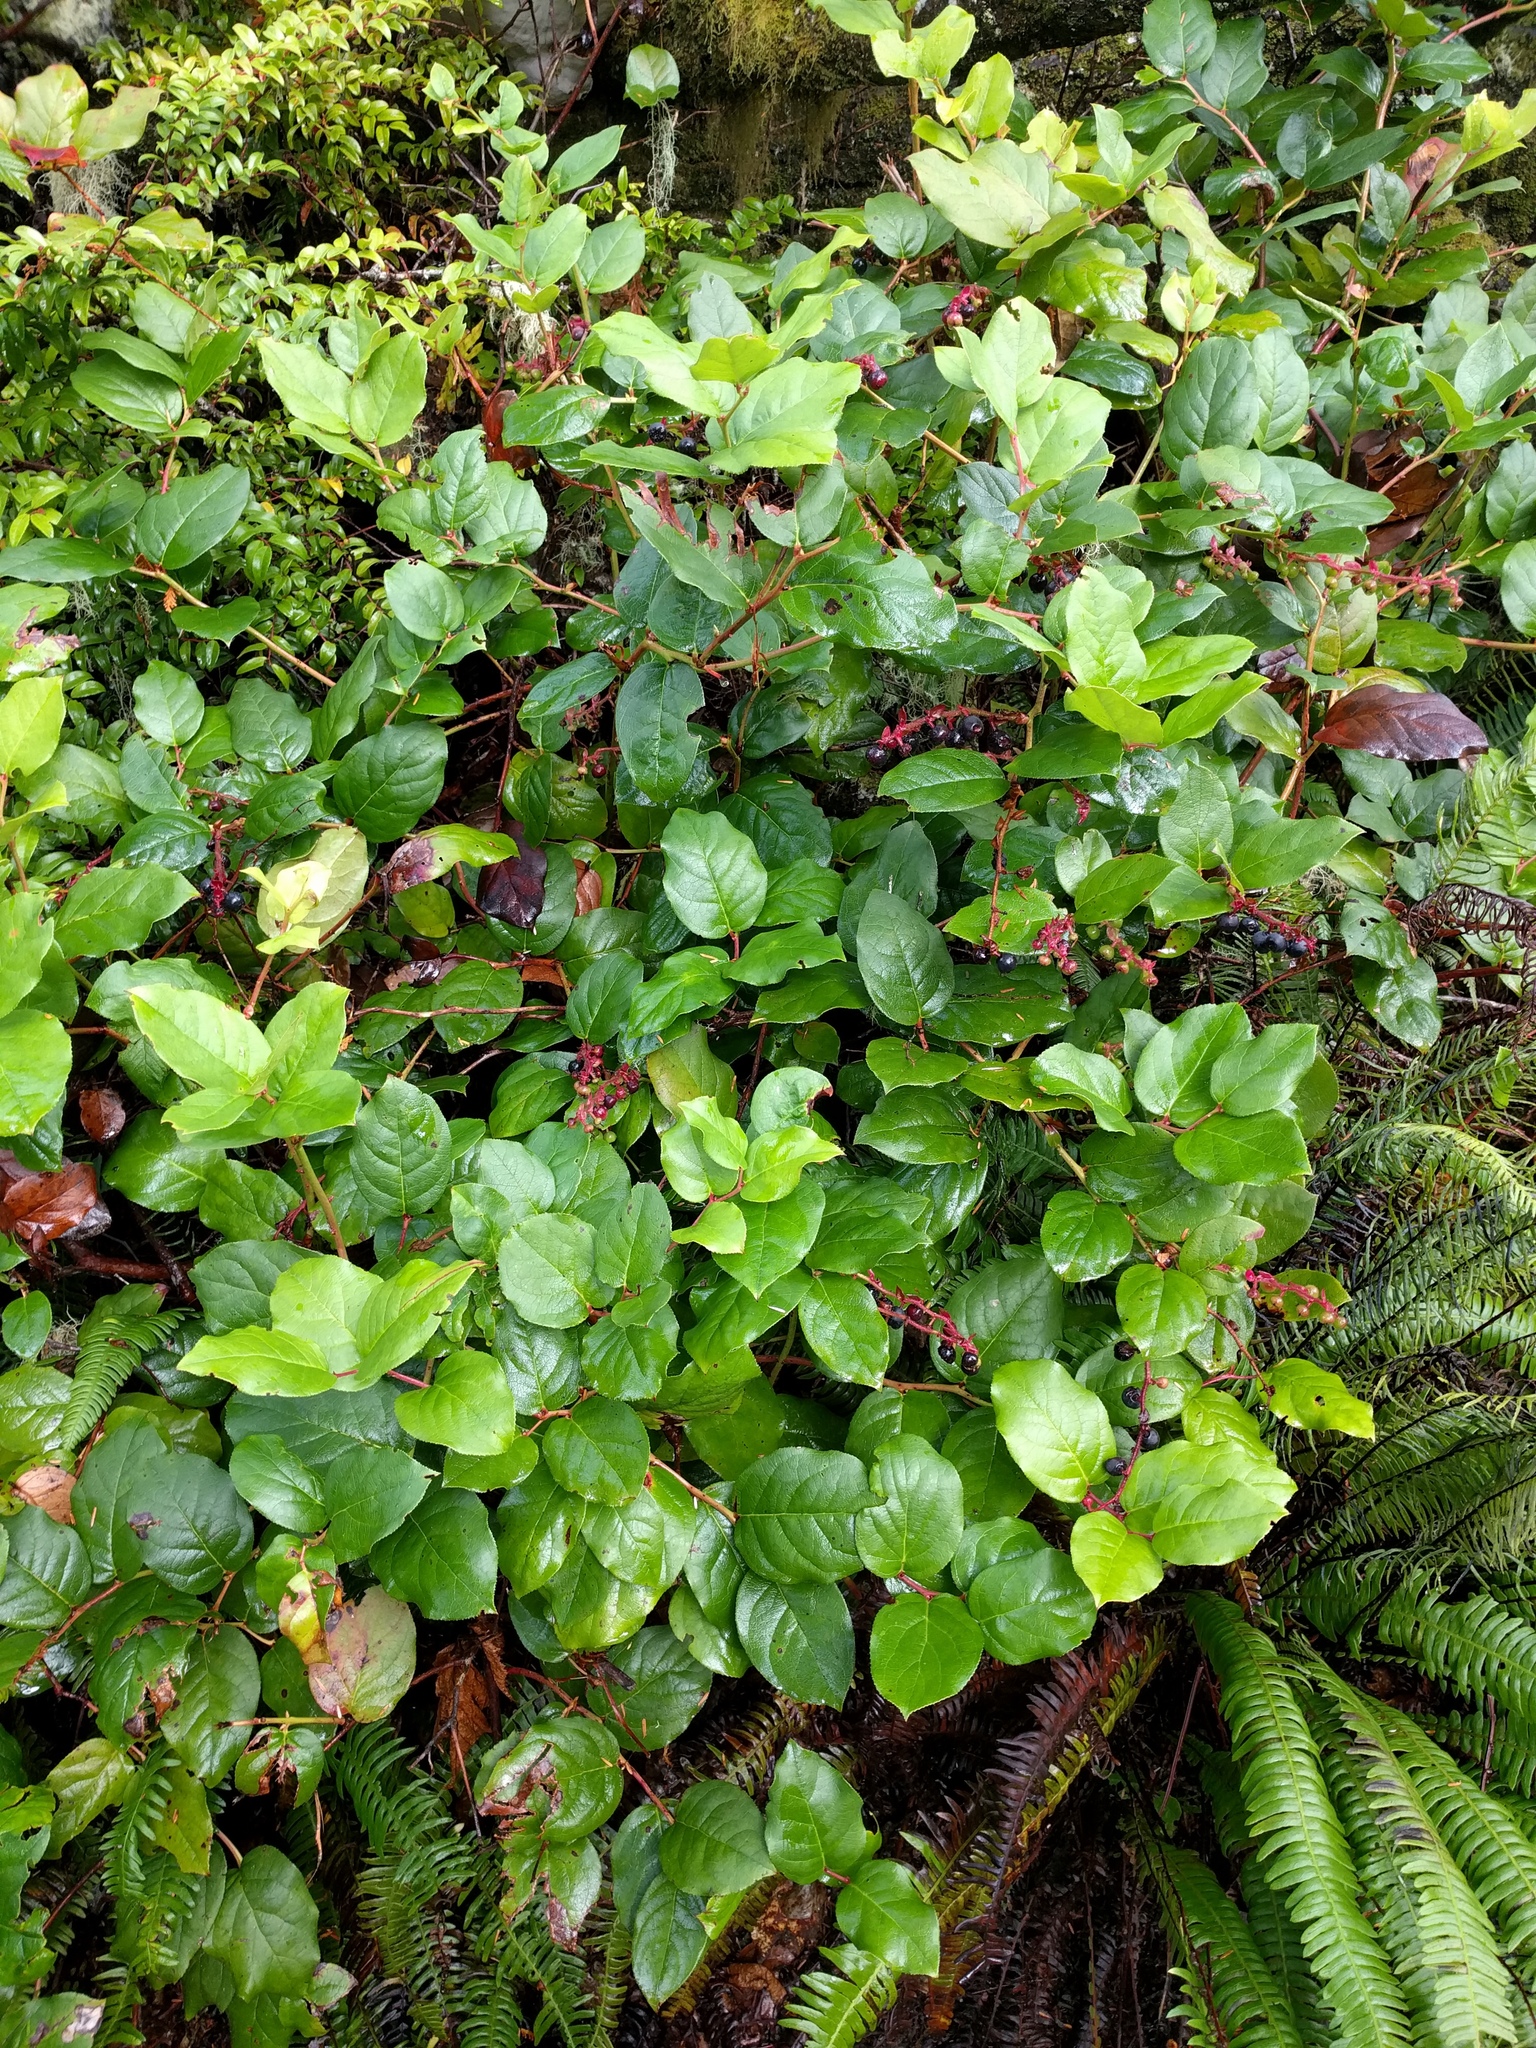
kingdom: Plantae
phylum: Tracheophyta
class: Magnoliopsida
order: Ericales
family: Ericaceae
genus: Gaultheria
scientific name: Gaultheria shallon
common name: Shallon
